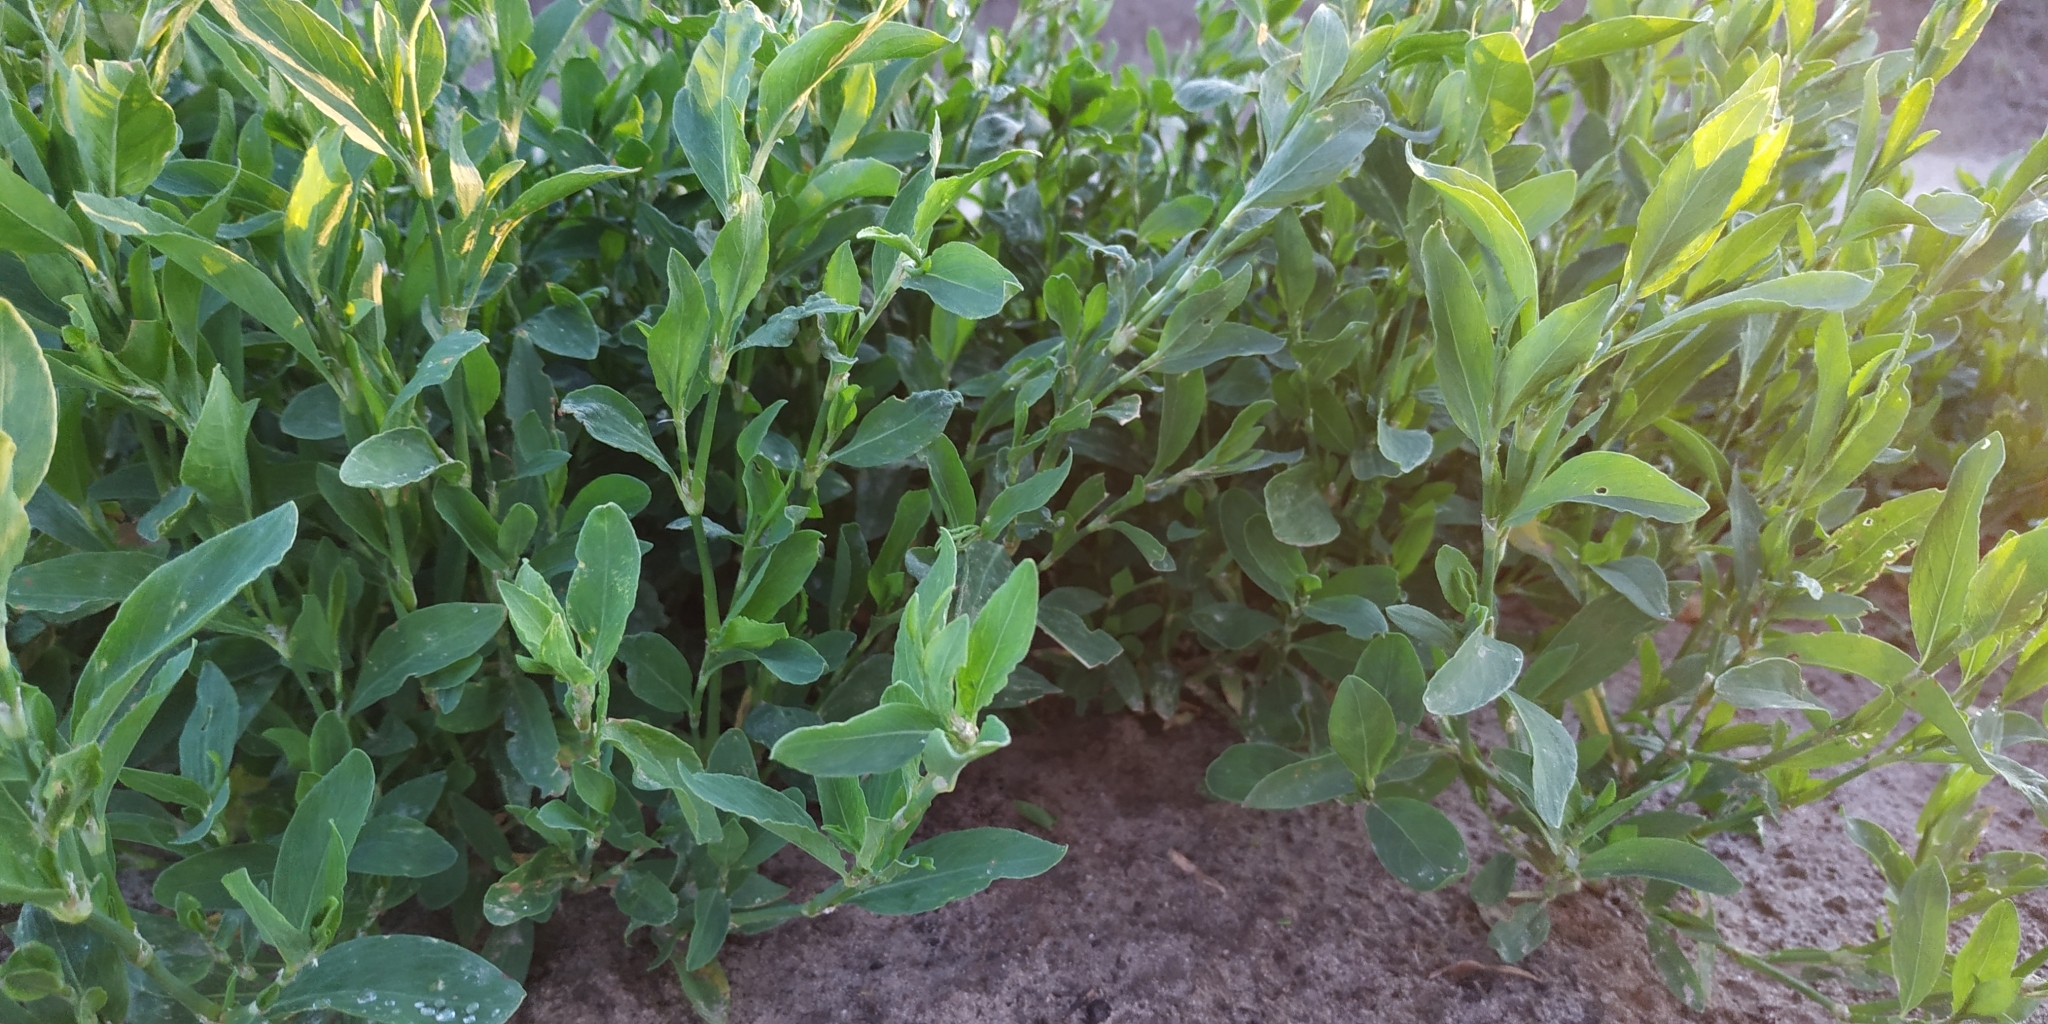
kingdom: Plantae
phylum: Tracheophyta
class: Magnoliopsida
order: Caryophyllales
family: Polygonaceae
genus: Polygonum
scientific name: Polygonum aviculare
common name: Prostrate knotweed
